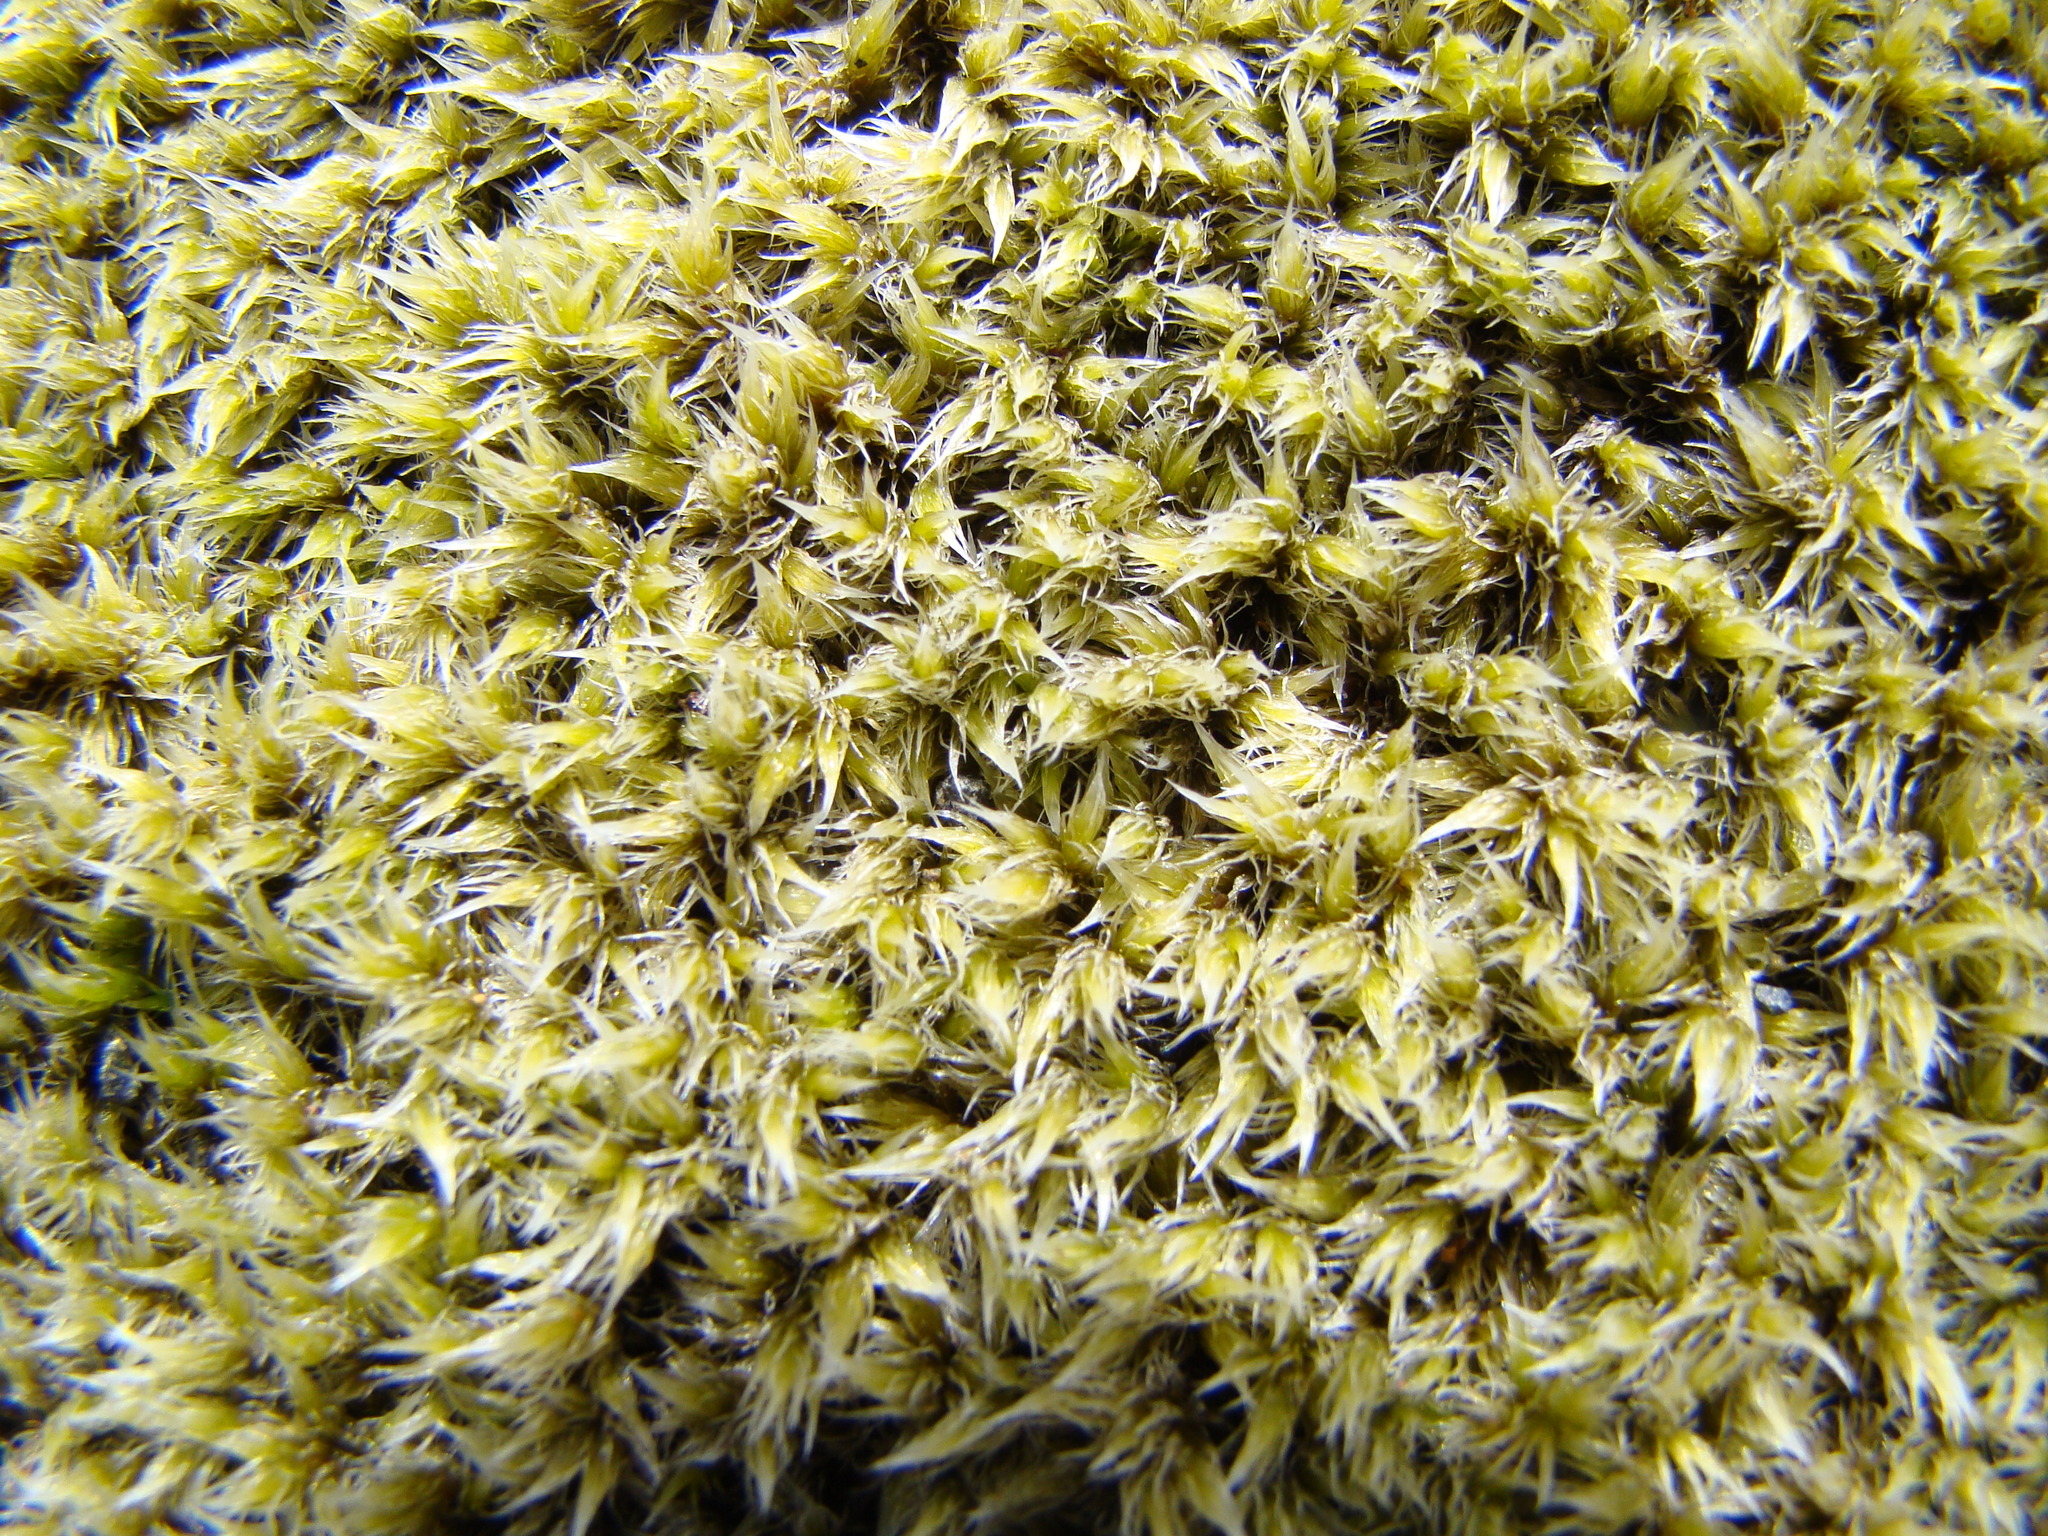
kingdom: Plantae
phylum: Bryophyta
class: Bryopsida
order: Grimmiales
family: Grimmiaceae
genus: Racomitrium
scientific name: Racomitrium lanuginosum
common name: Hoary rock moss
